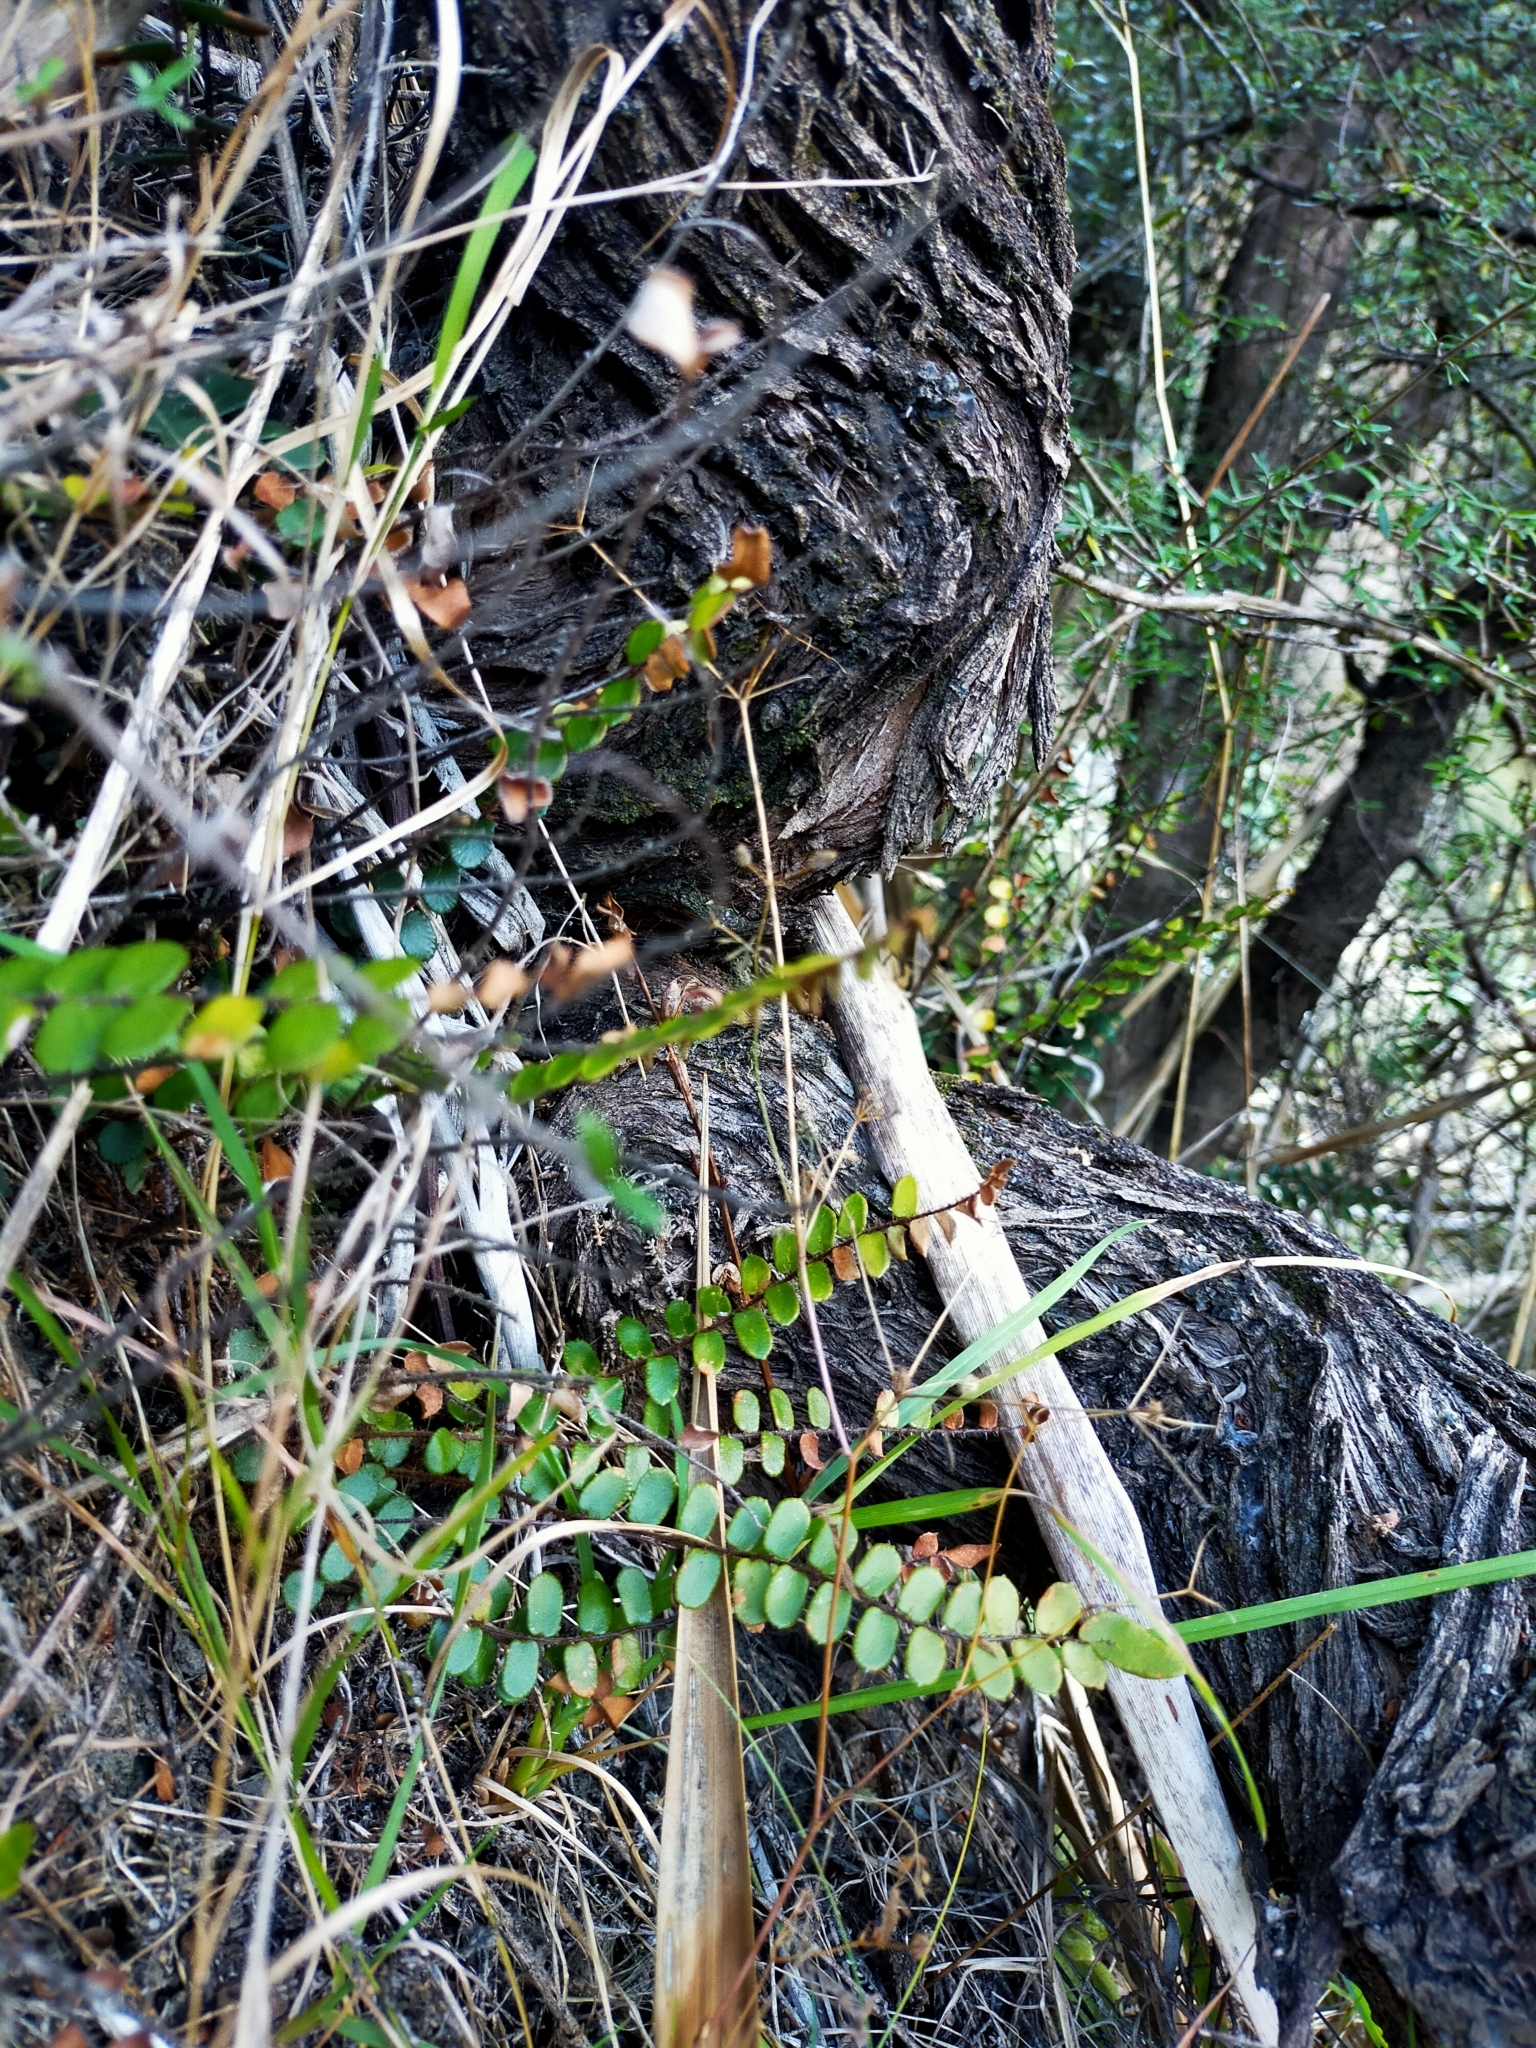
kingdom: Plantae
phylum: Tracheophyta
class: Polypodiopsida
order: Polypodiales
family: Pteridaceae
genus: Pellaea
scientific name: Pellaea rotundifolia
